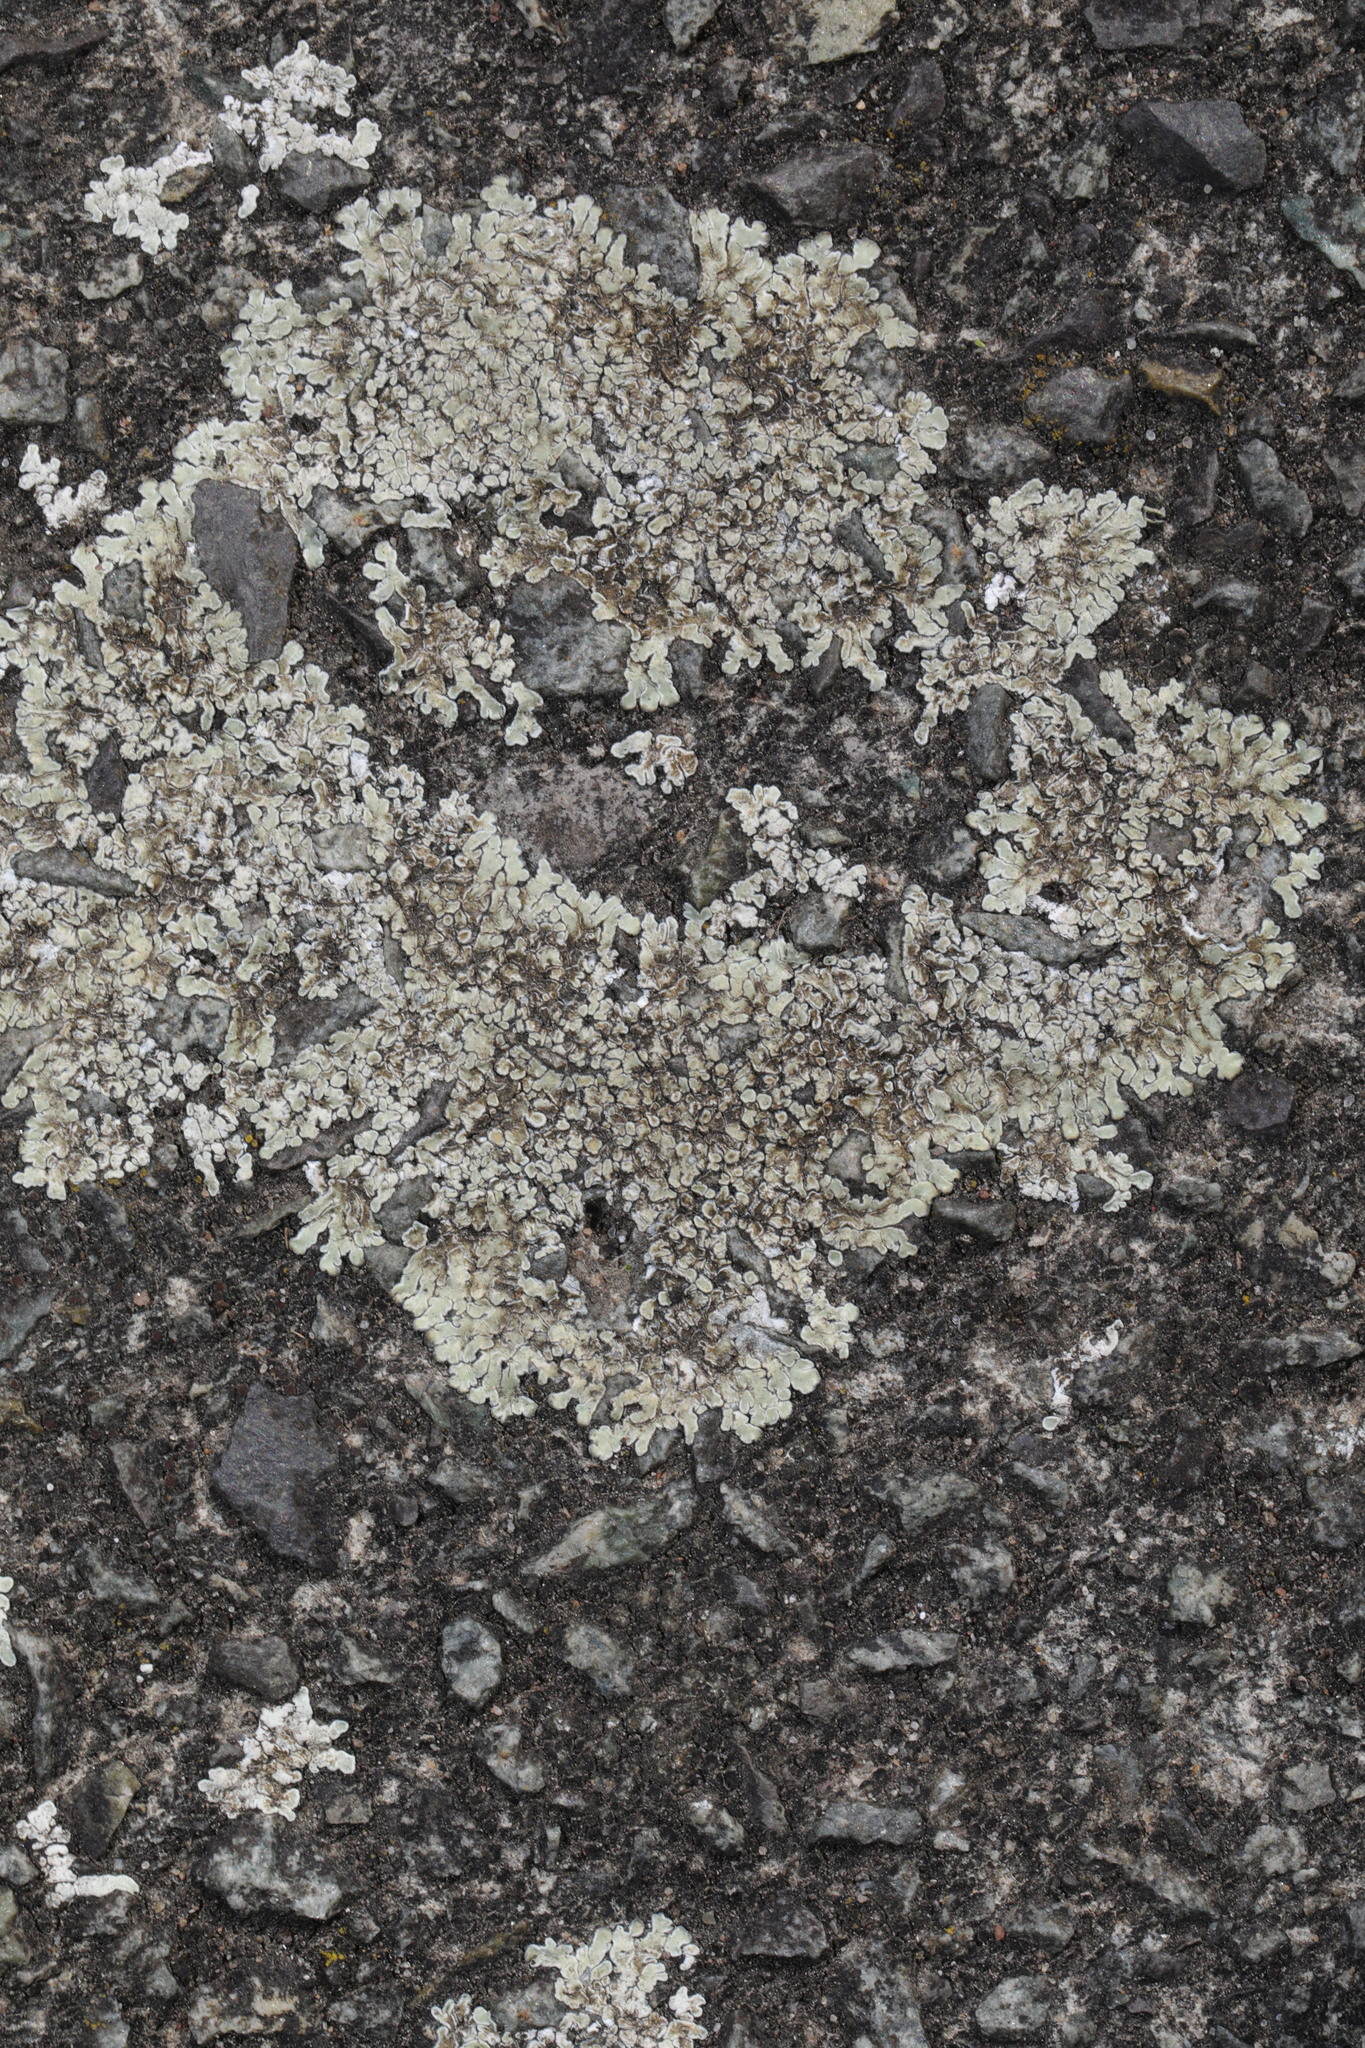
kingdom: Fungi
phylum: Ascomycota
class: Lecanoromycetes
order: Lecanorales
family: Lecanoraceae
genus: Protoparmeliopsis
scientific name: Protoparmeliopsis muralis
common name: Stonewall rim lichen
